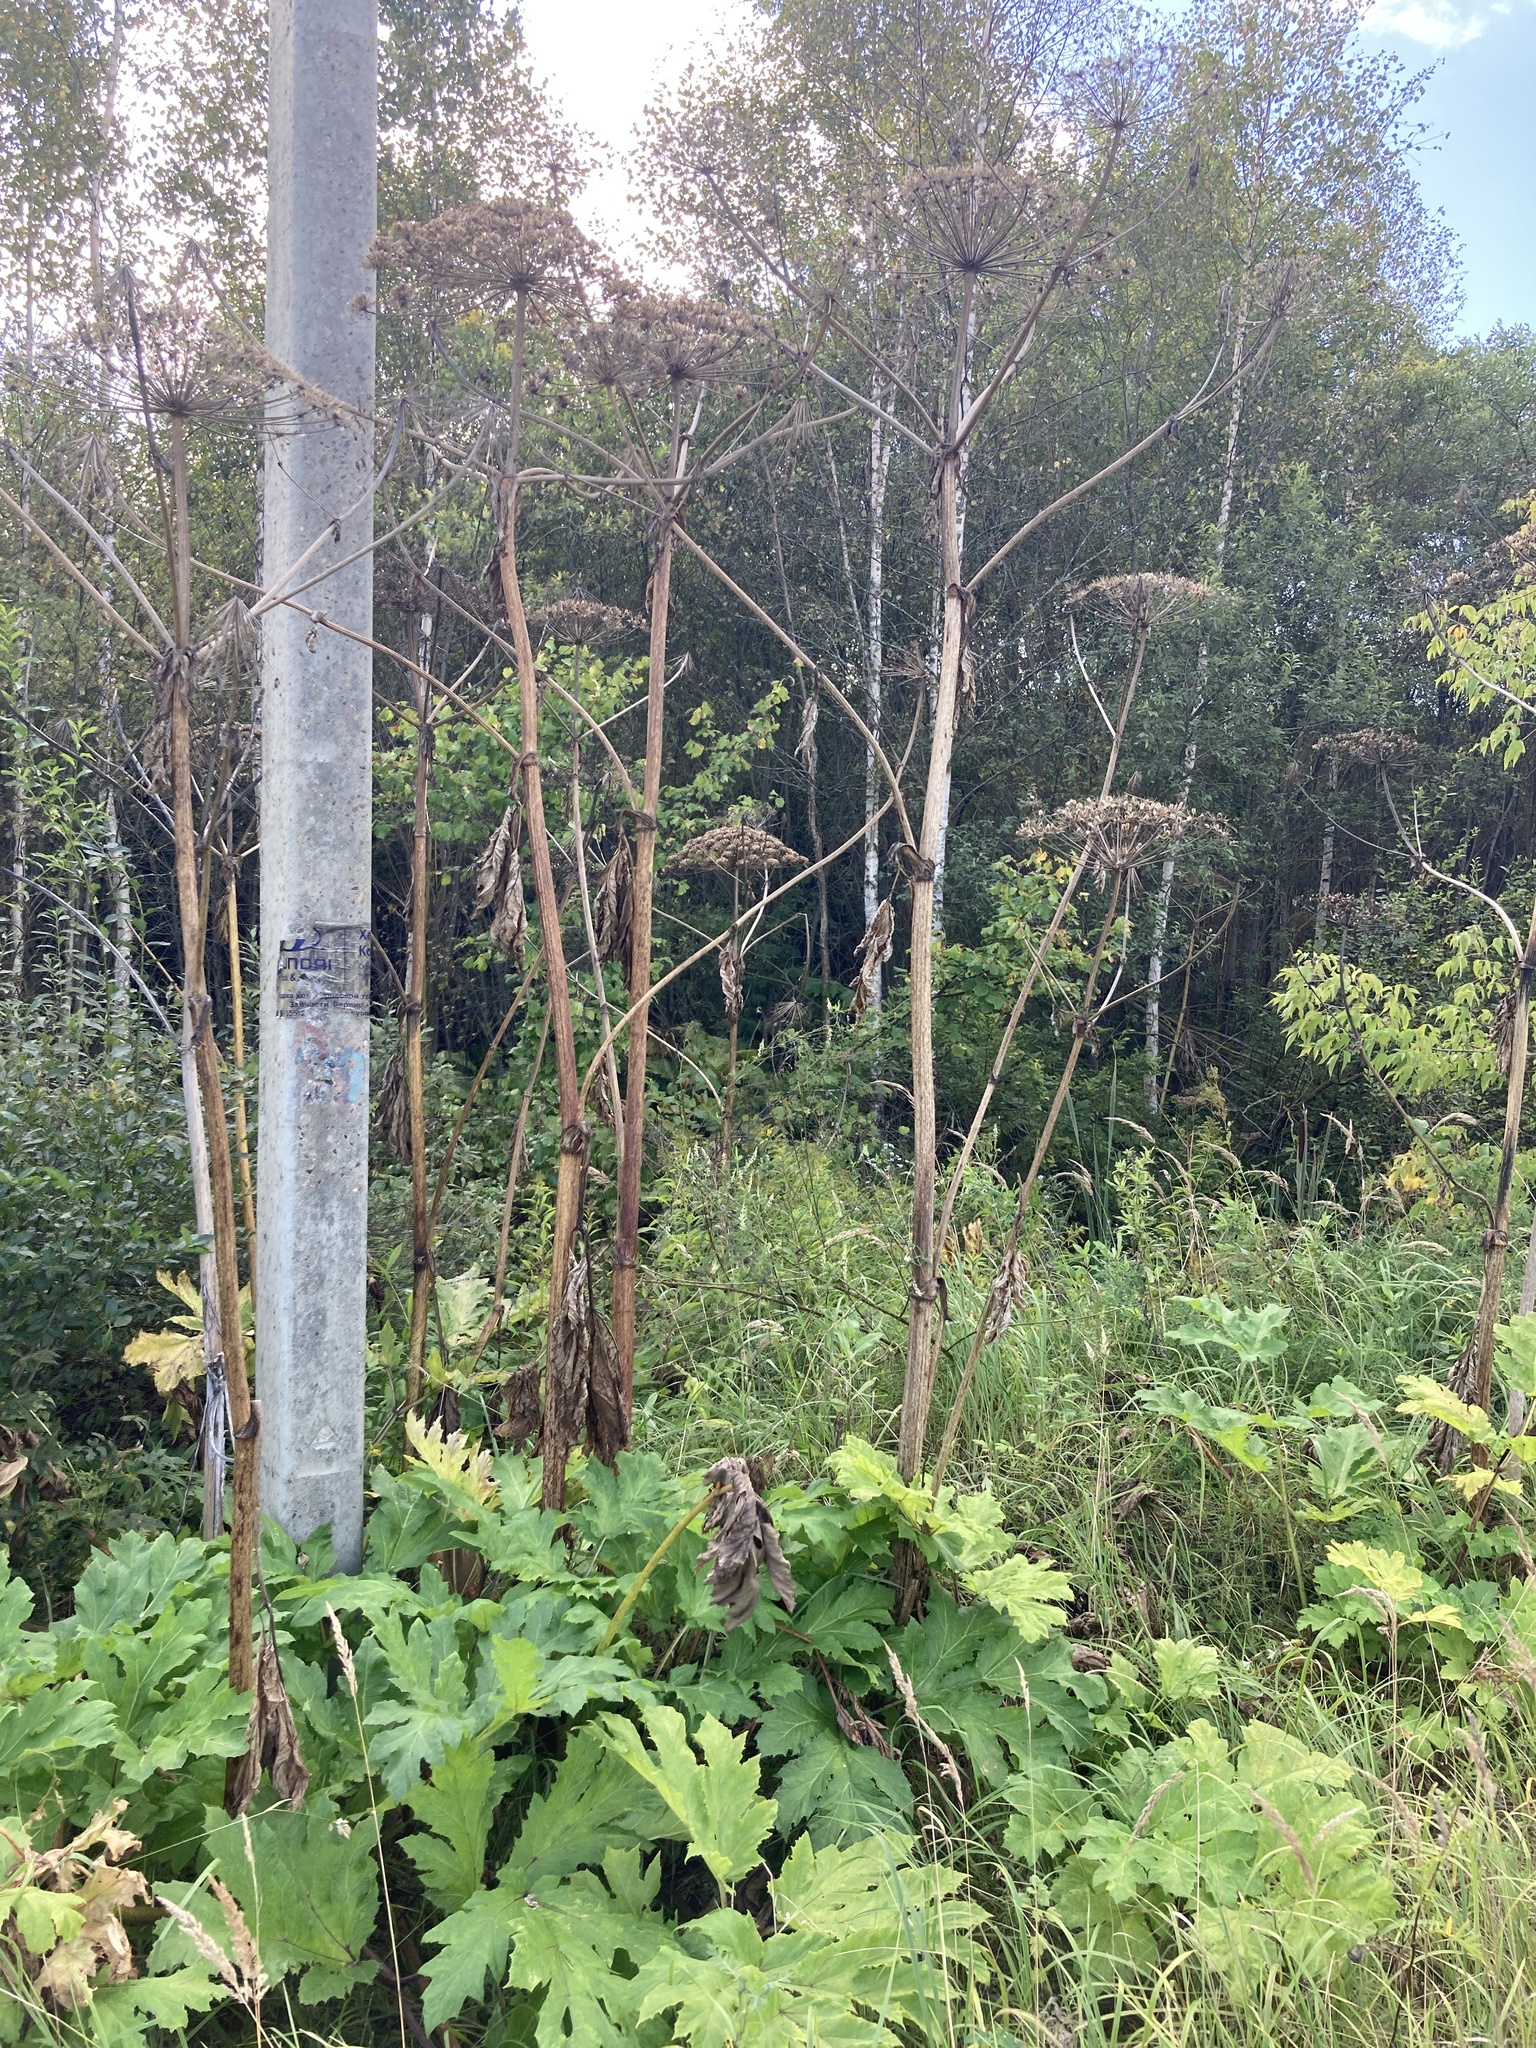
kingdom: Plantae
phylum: Tracheophyta
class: Magnoliopsida
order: Apiales
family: Apiaceae
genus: Heracleum
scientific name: Heracleum sosnowskyi
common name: Sosnowsky's hogweed
